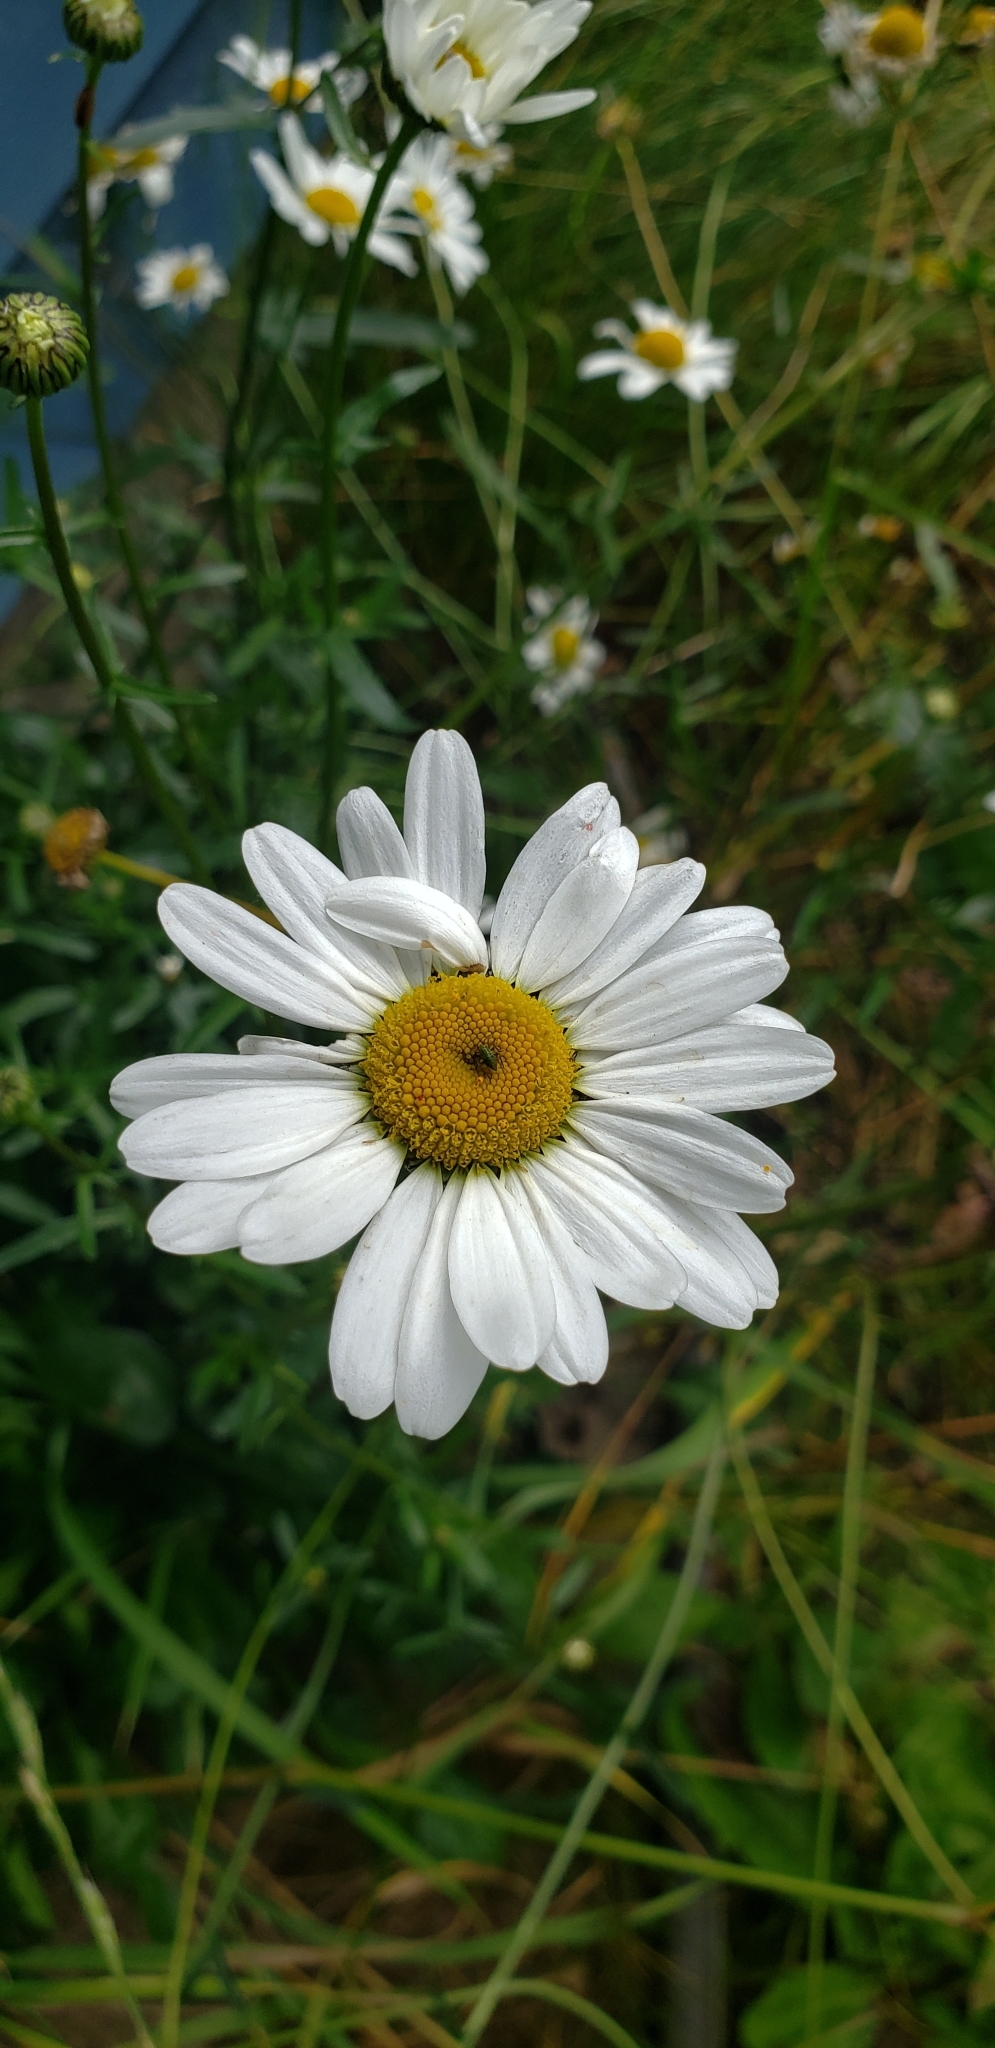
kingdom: Plantae
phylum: Tracheophyta
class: Magnoliopsida
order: Asterales
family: Asteraceae
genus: Leucanthemum
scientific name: Leucanthemum maximum
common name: Max chrysanthemum
